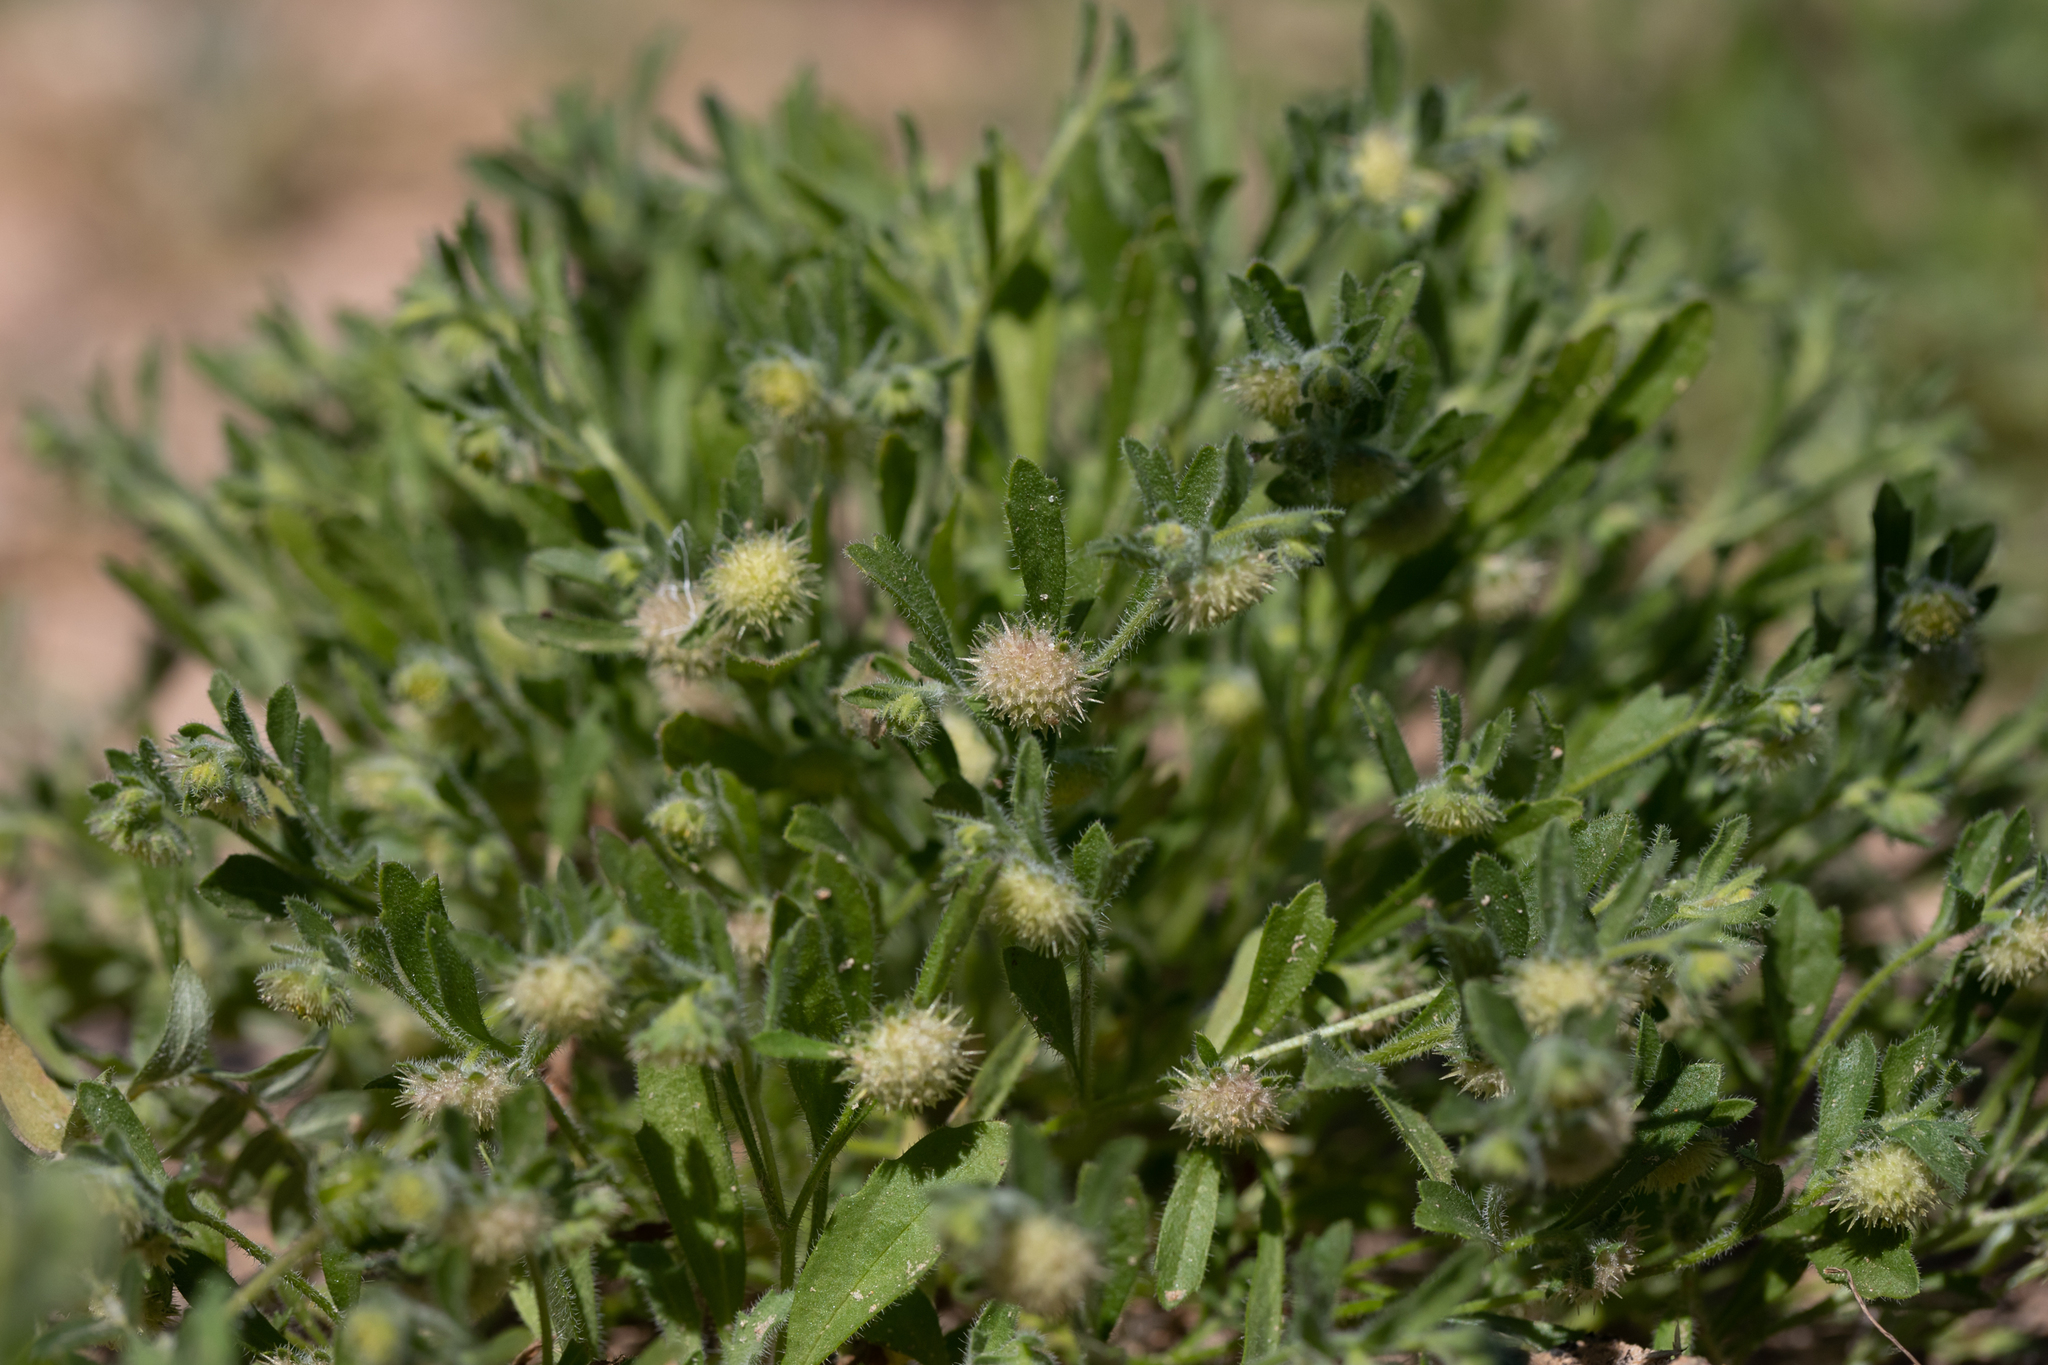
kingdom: Plantae
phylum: Tracheophyta
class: Magnoliopsida
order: Asterales
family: Asteraceae
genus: Calotis
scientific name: Calotis hispidula
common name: Bogan-flea
